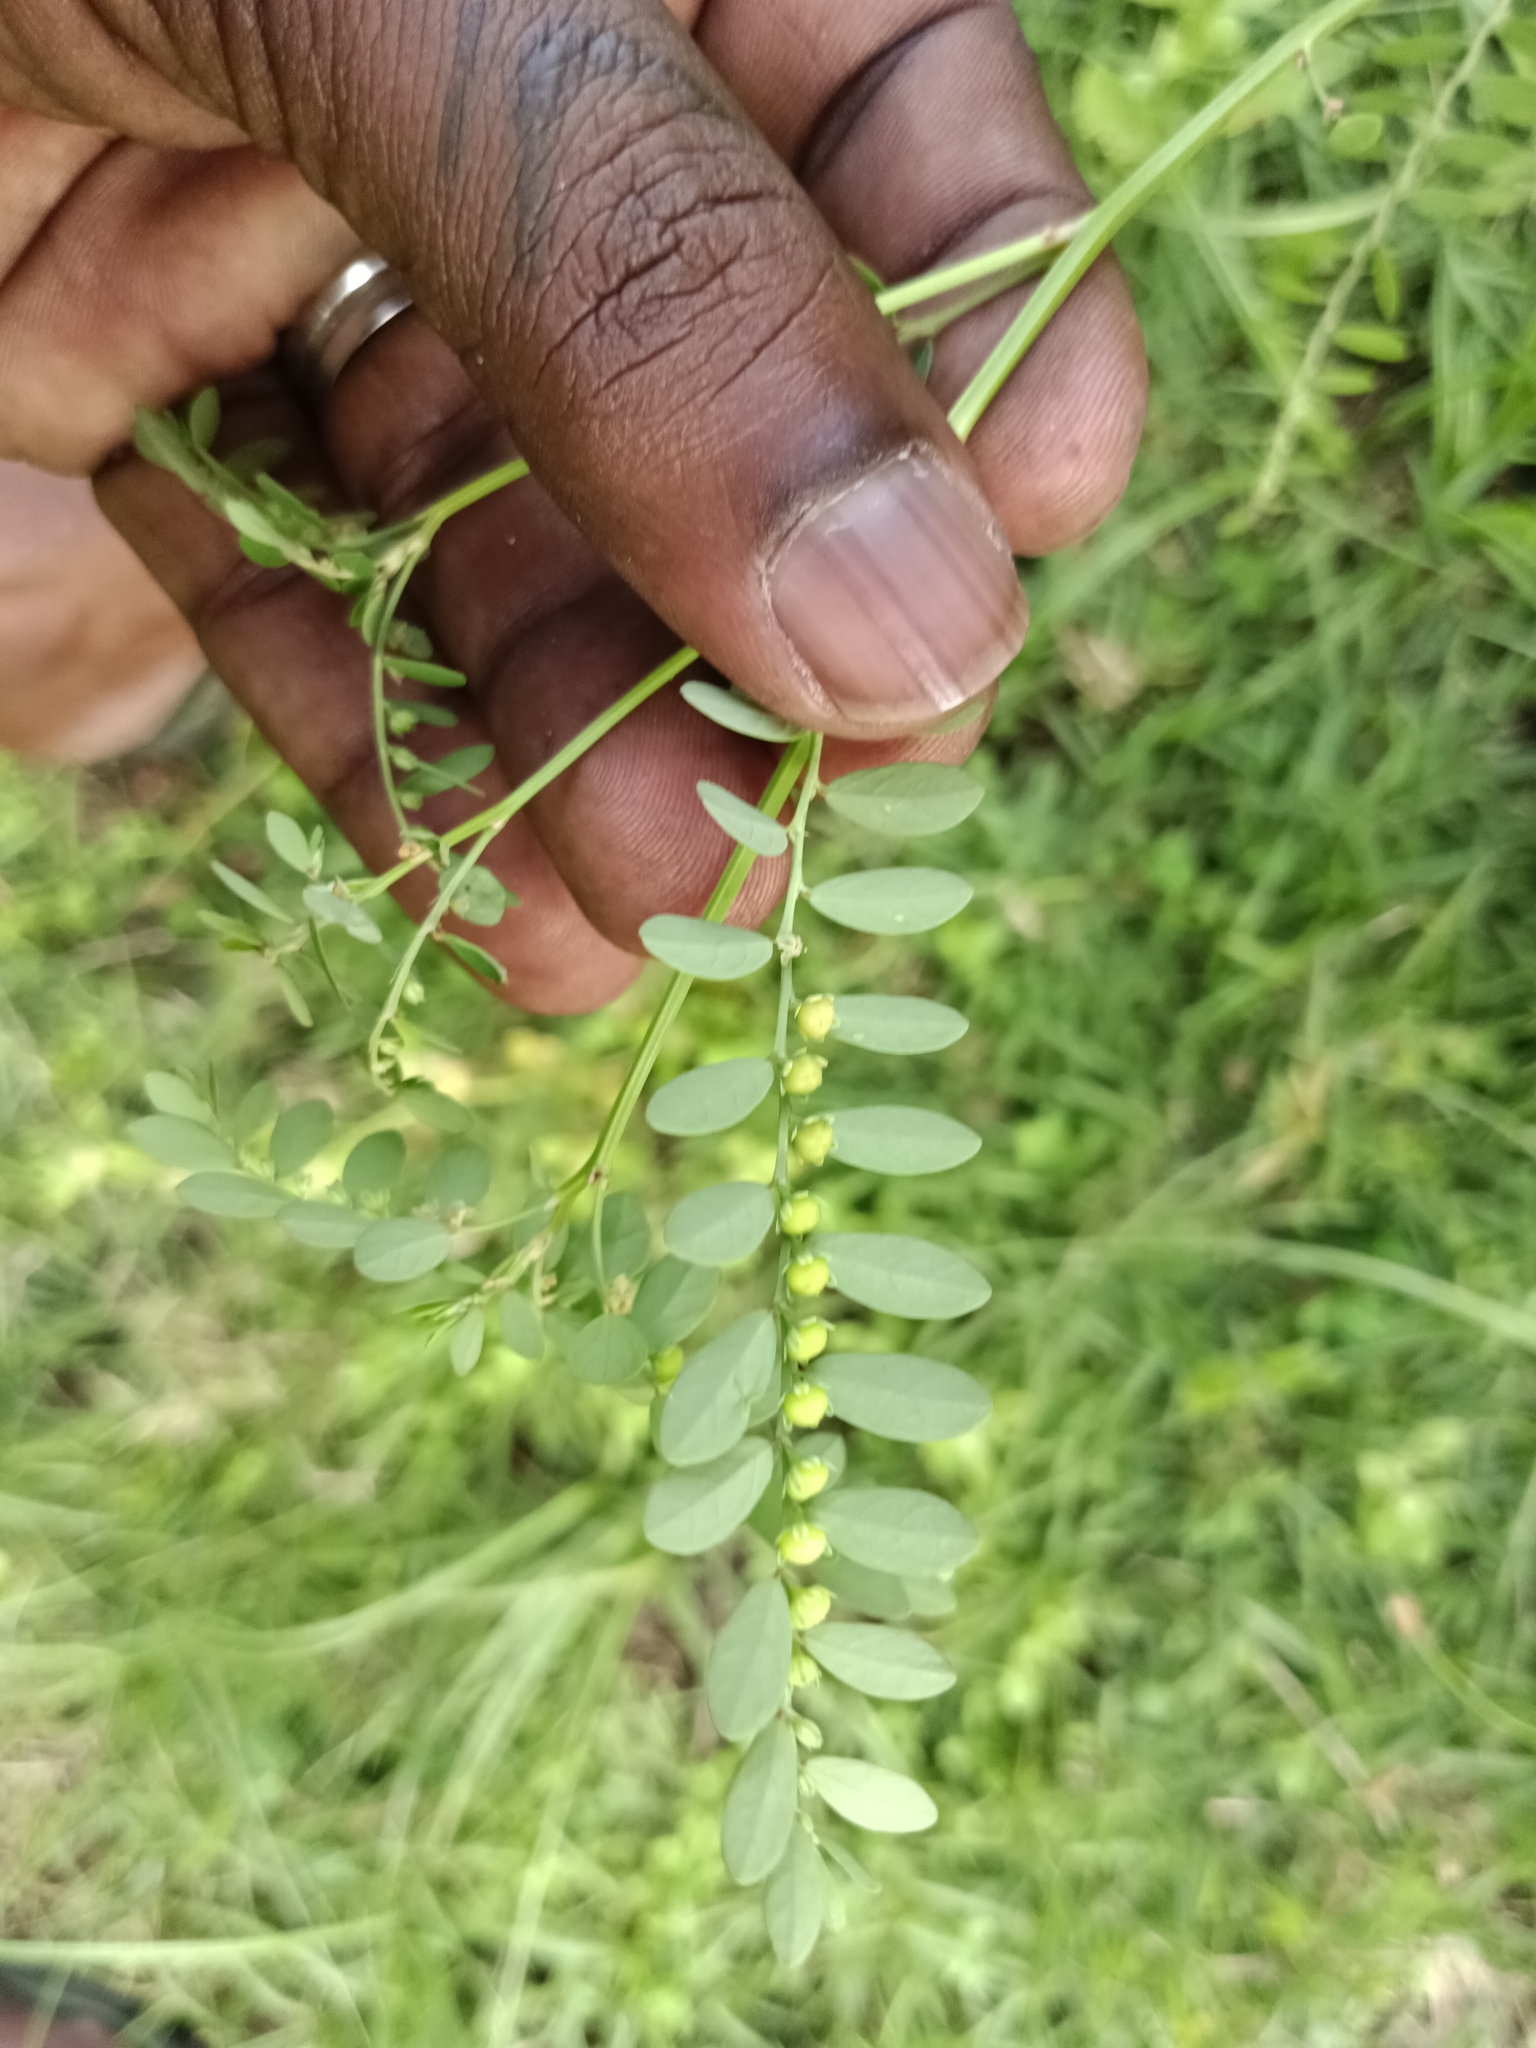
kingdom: Plantae
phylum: Tracheophyta
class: Magnoliopsida
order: Malpighiales
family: Phyllanthaceae
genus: Phyllanthus
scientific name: Phyllanthus amarus
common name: Carry me seed
